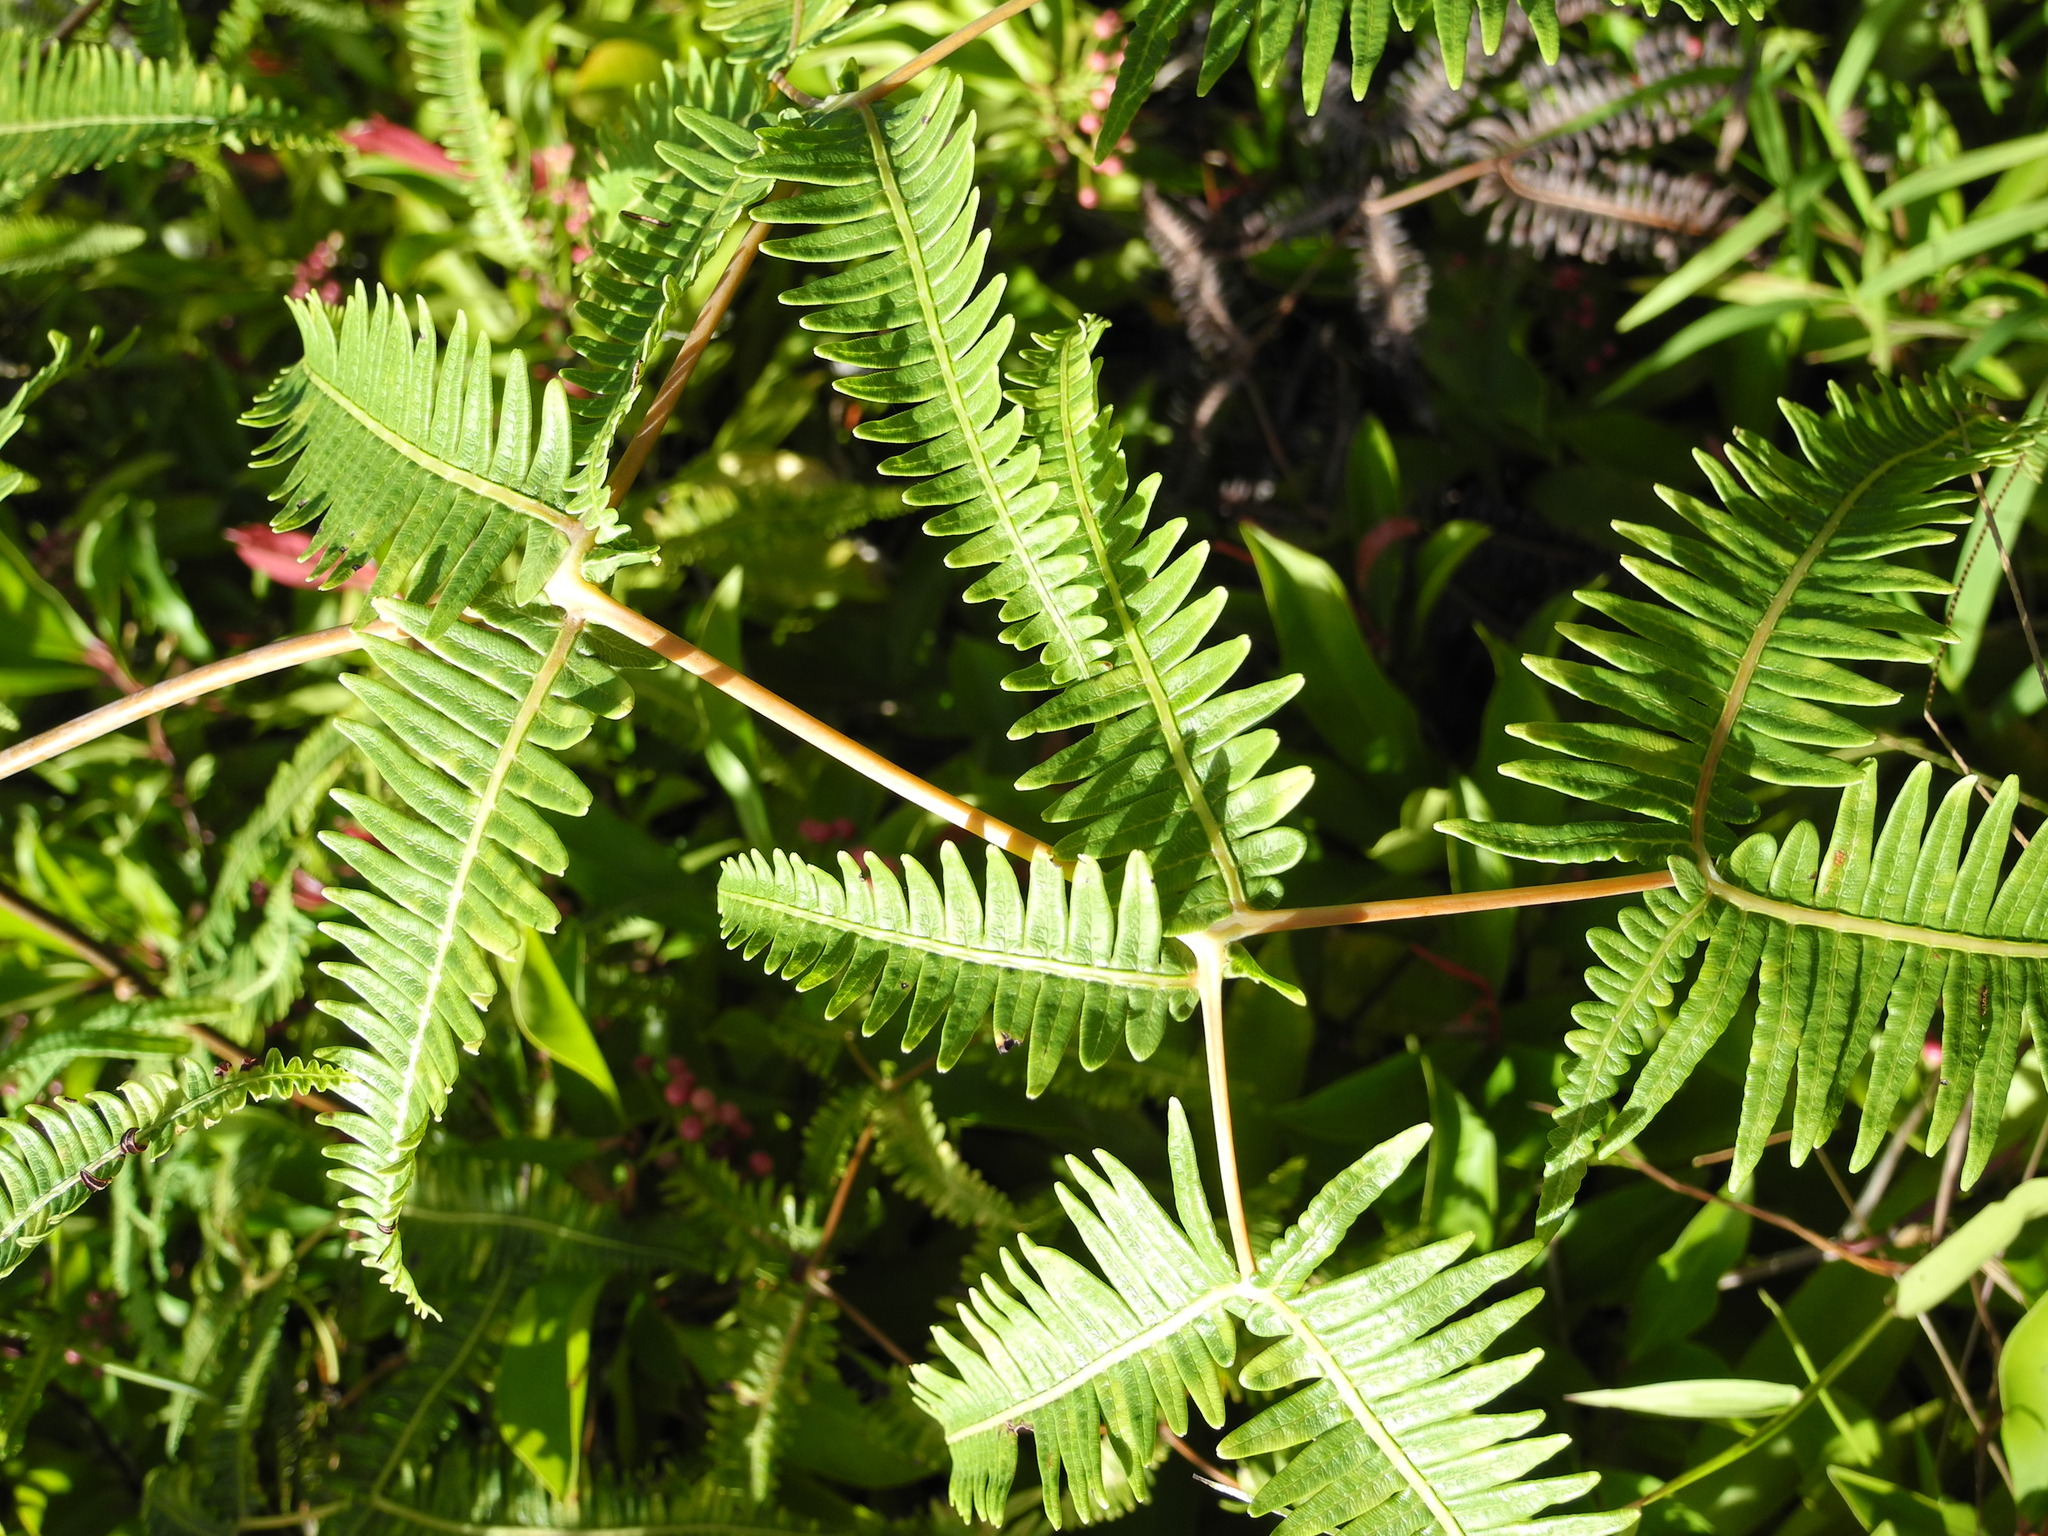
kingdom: Plantae
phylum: Tracheophyta
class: Polypodiopsida
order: Gleicheniales
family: Gleicheniaceae
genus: Dicranopteris
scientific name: Dicranopteris linearis
